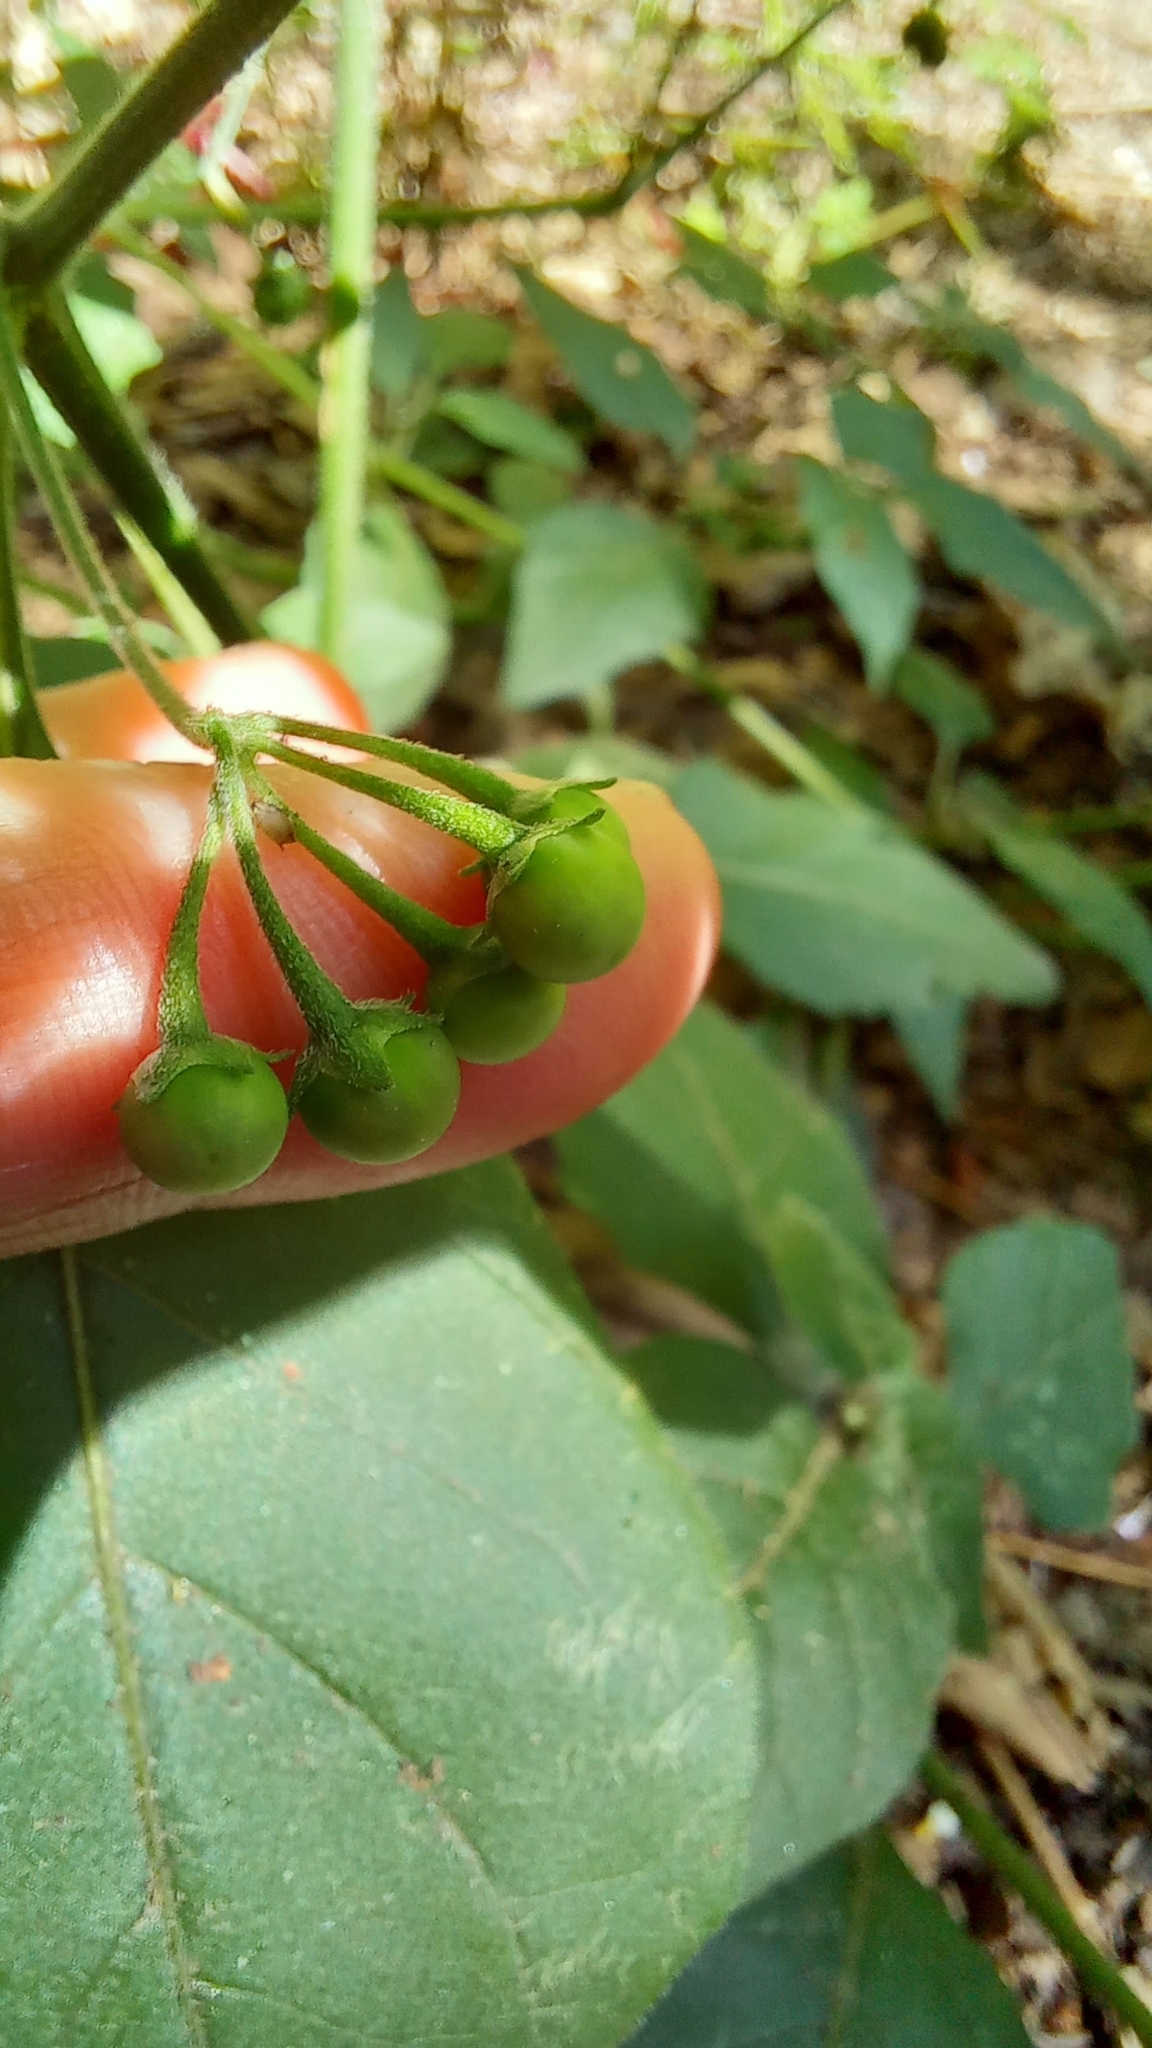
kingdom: Plantae
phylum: Tracheophyta
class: Magnoliopsida
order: Solanales
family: Solanaceae
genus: Solanum
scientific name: Solanum chenopodioides
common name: Tall nightshade
